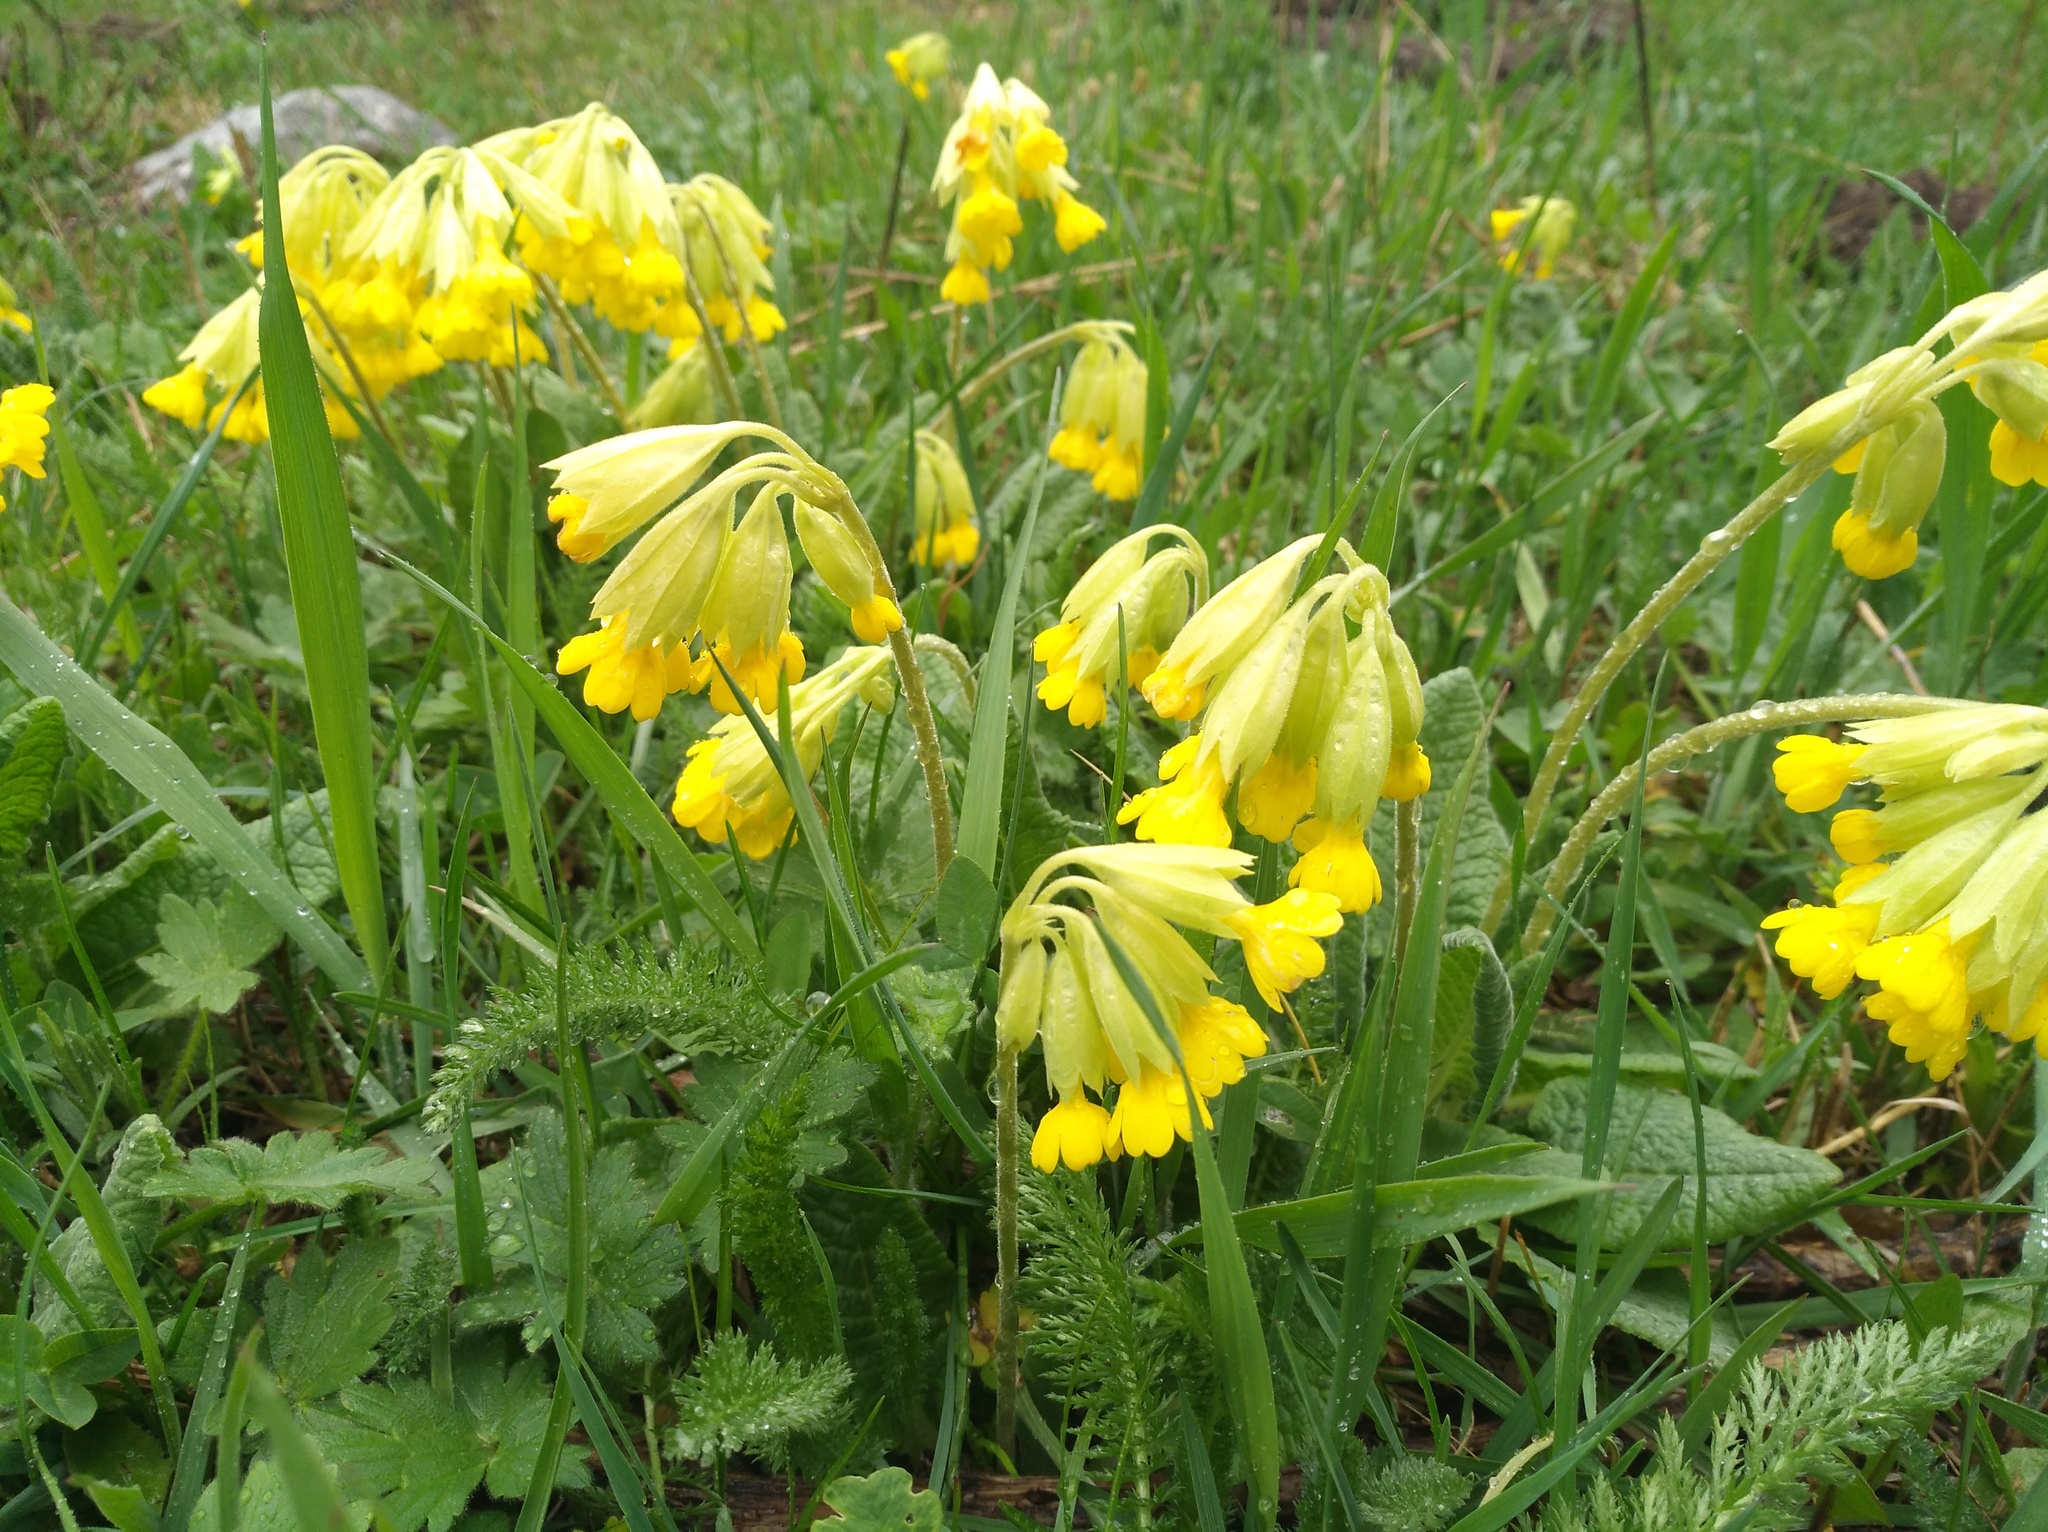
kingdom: Plantae
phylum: Tracheophyta
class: Magnoliopsida
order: Ericales
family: Primulaceae
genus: Primula
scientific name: Primula veris
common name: Cowslip
